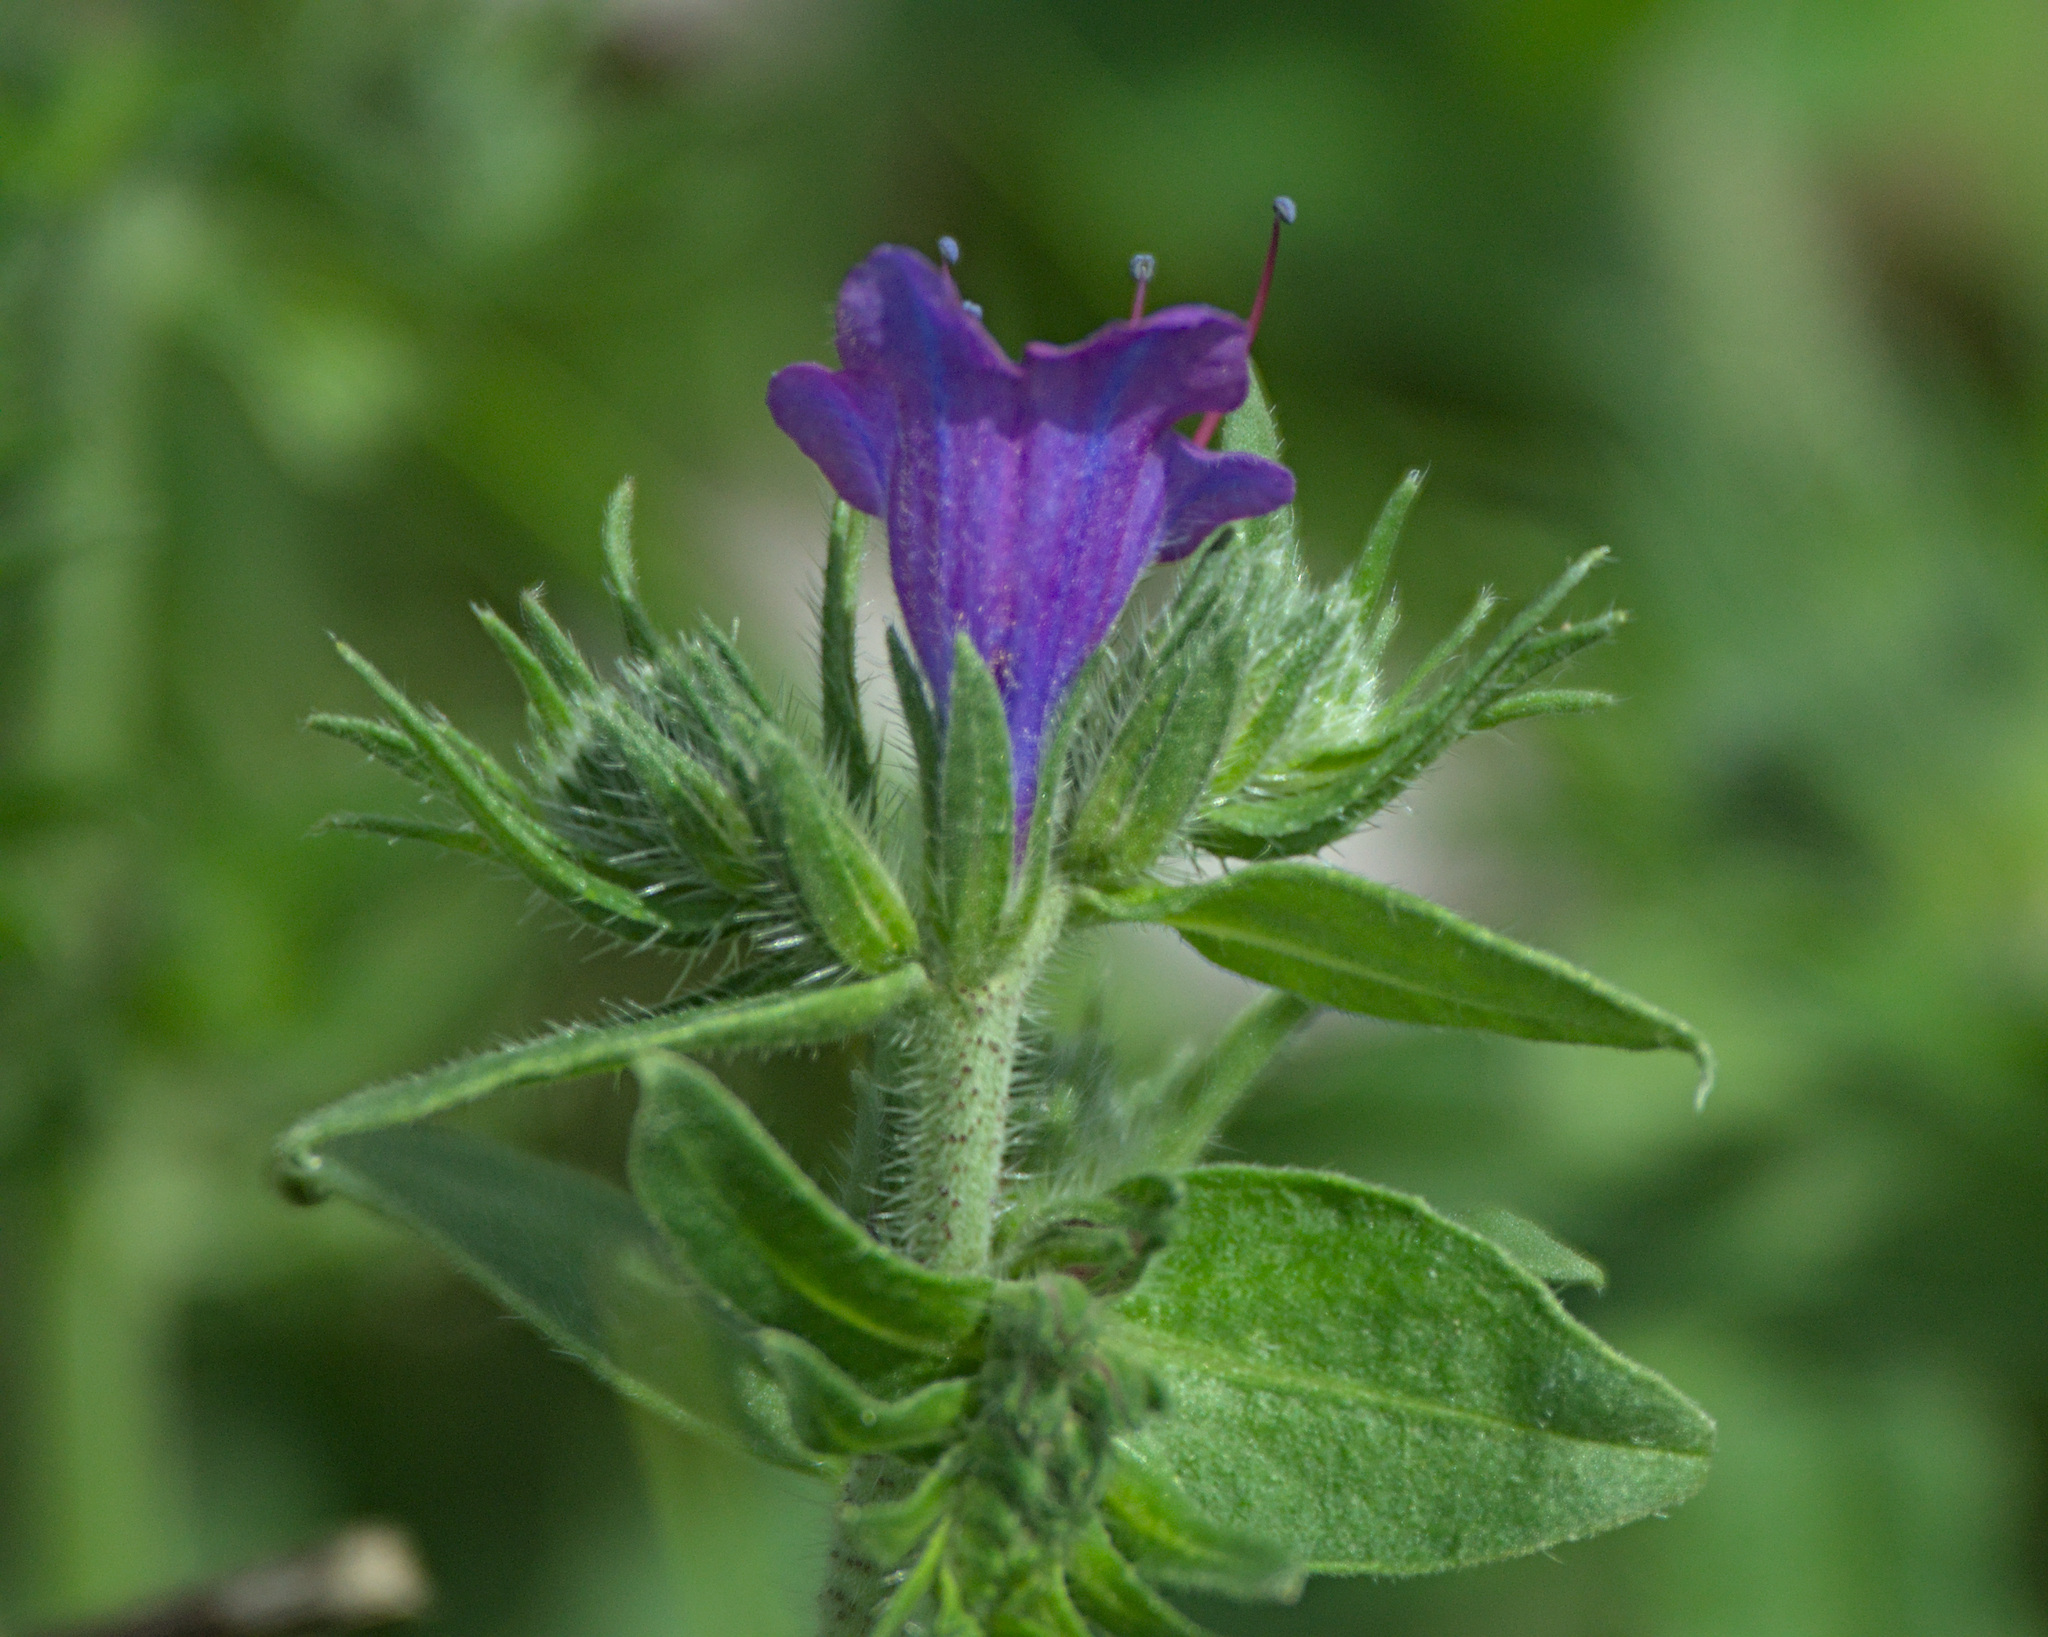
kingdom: Plantae
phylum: Tracheophyta
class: Magnoliopsida
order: Boraginales
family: Boraginaceae
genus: Echium
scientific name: Echium vulgare
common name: Common viper's bugloss
